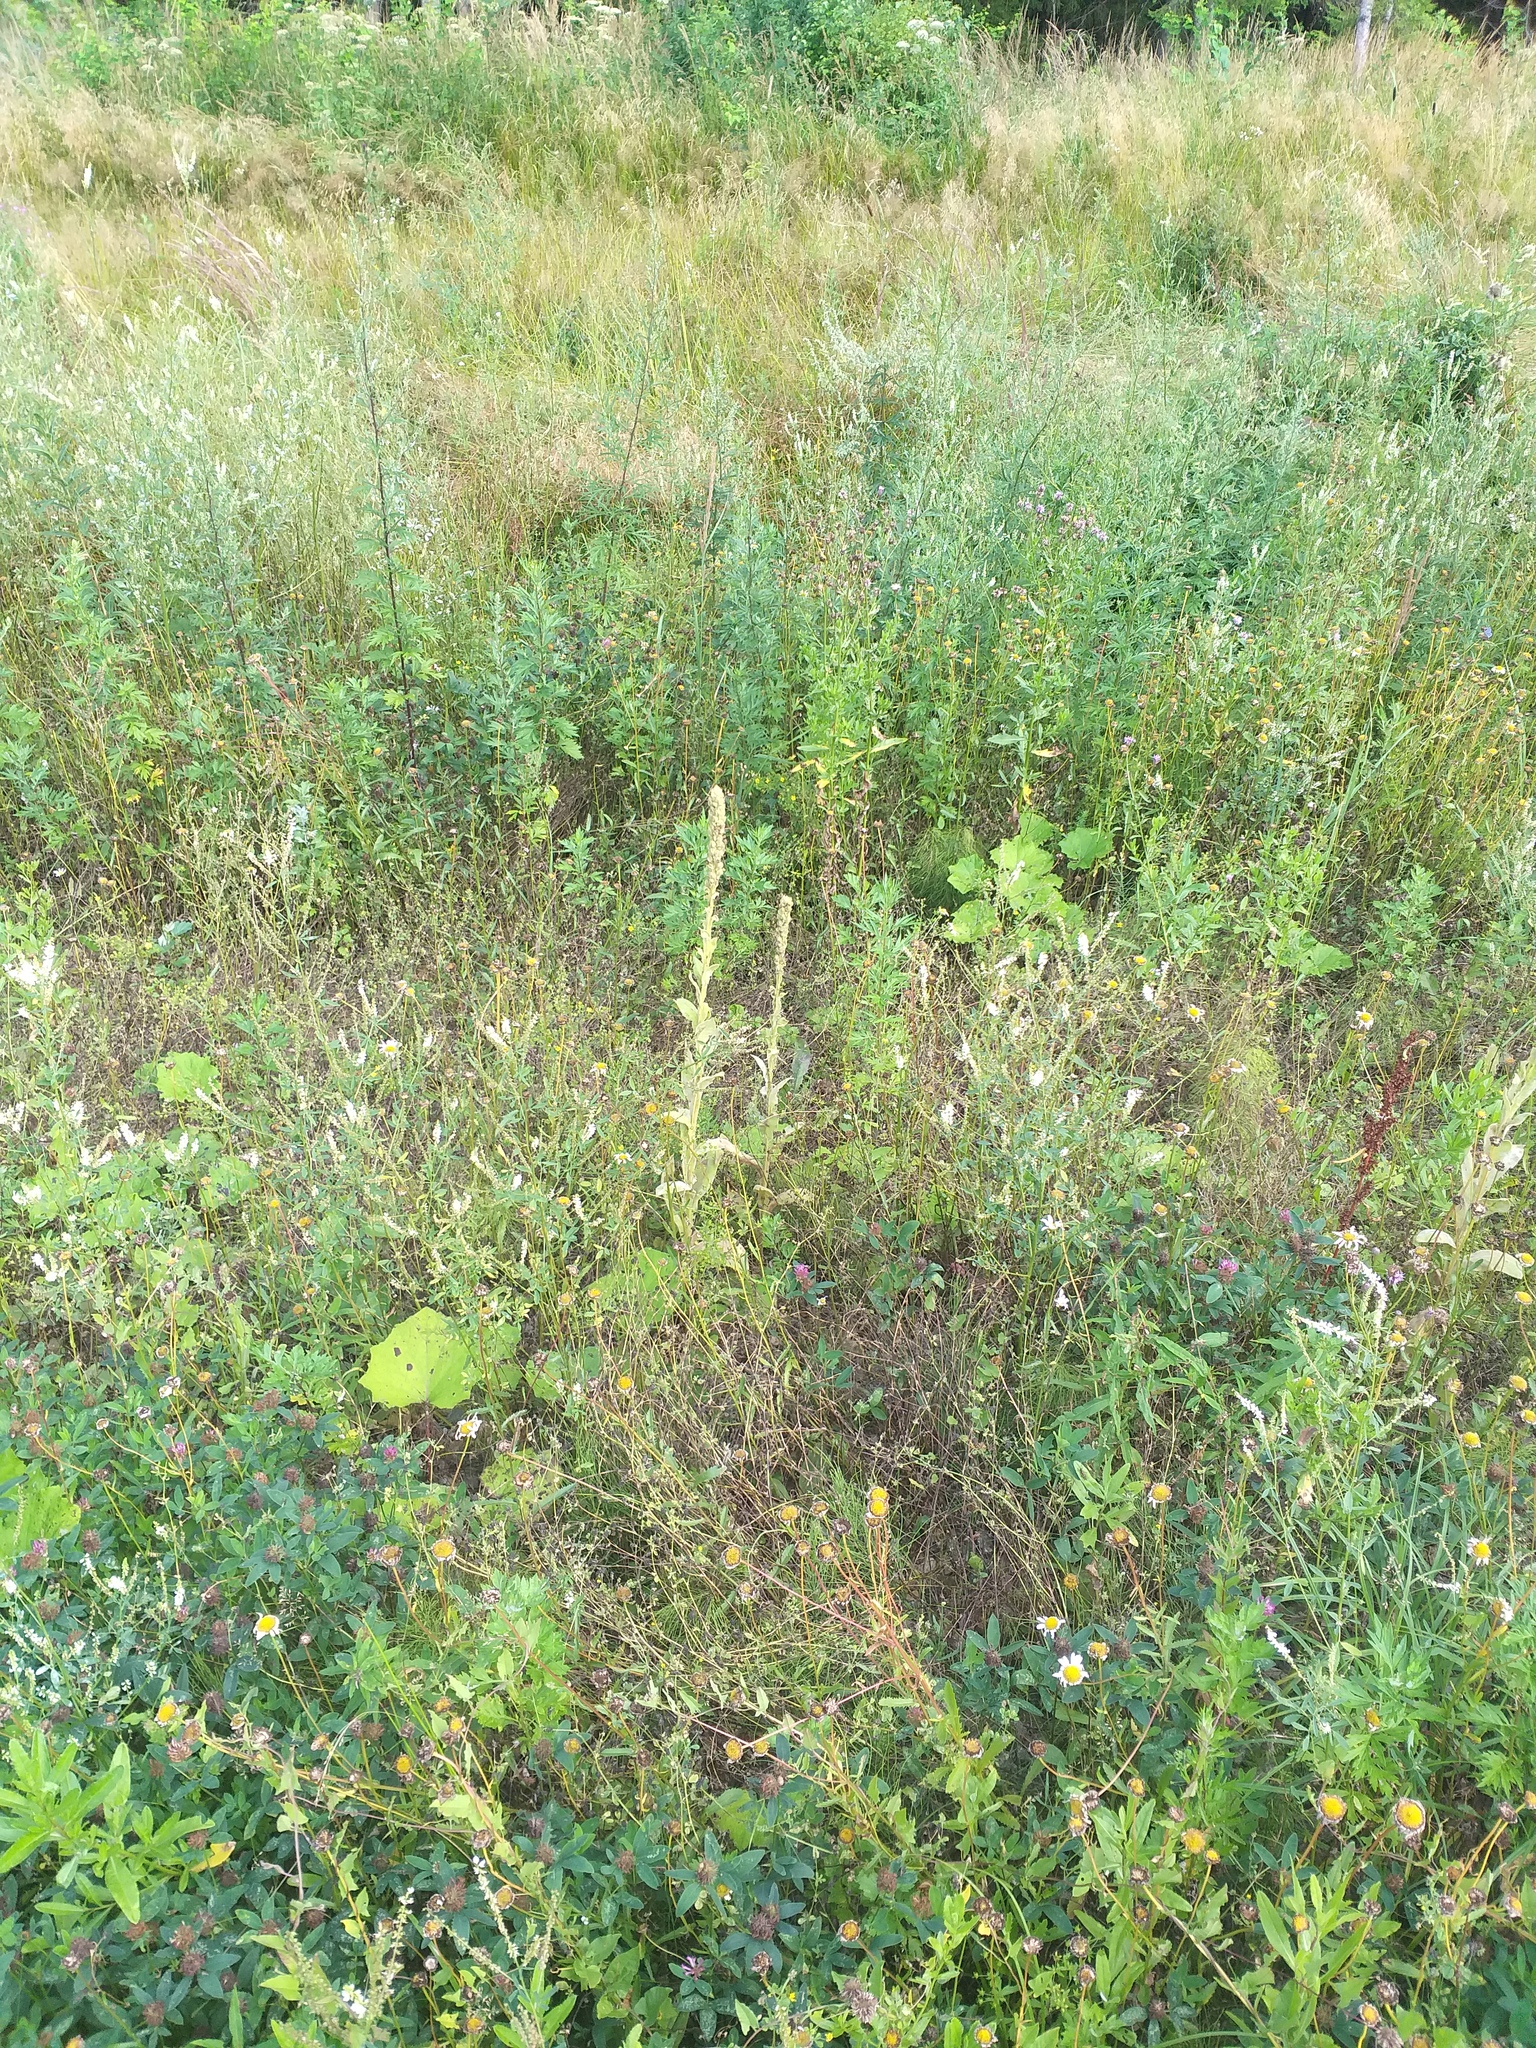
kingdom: Plantae
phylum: Tracheophyta
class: Magnoliopsida
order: Lamiales
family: Scrophulariaceae
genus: Verbascum
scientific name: Verbascum thapsus
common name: Common mullein
